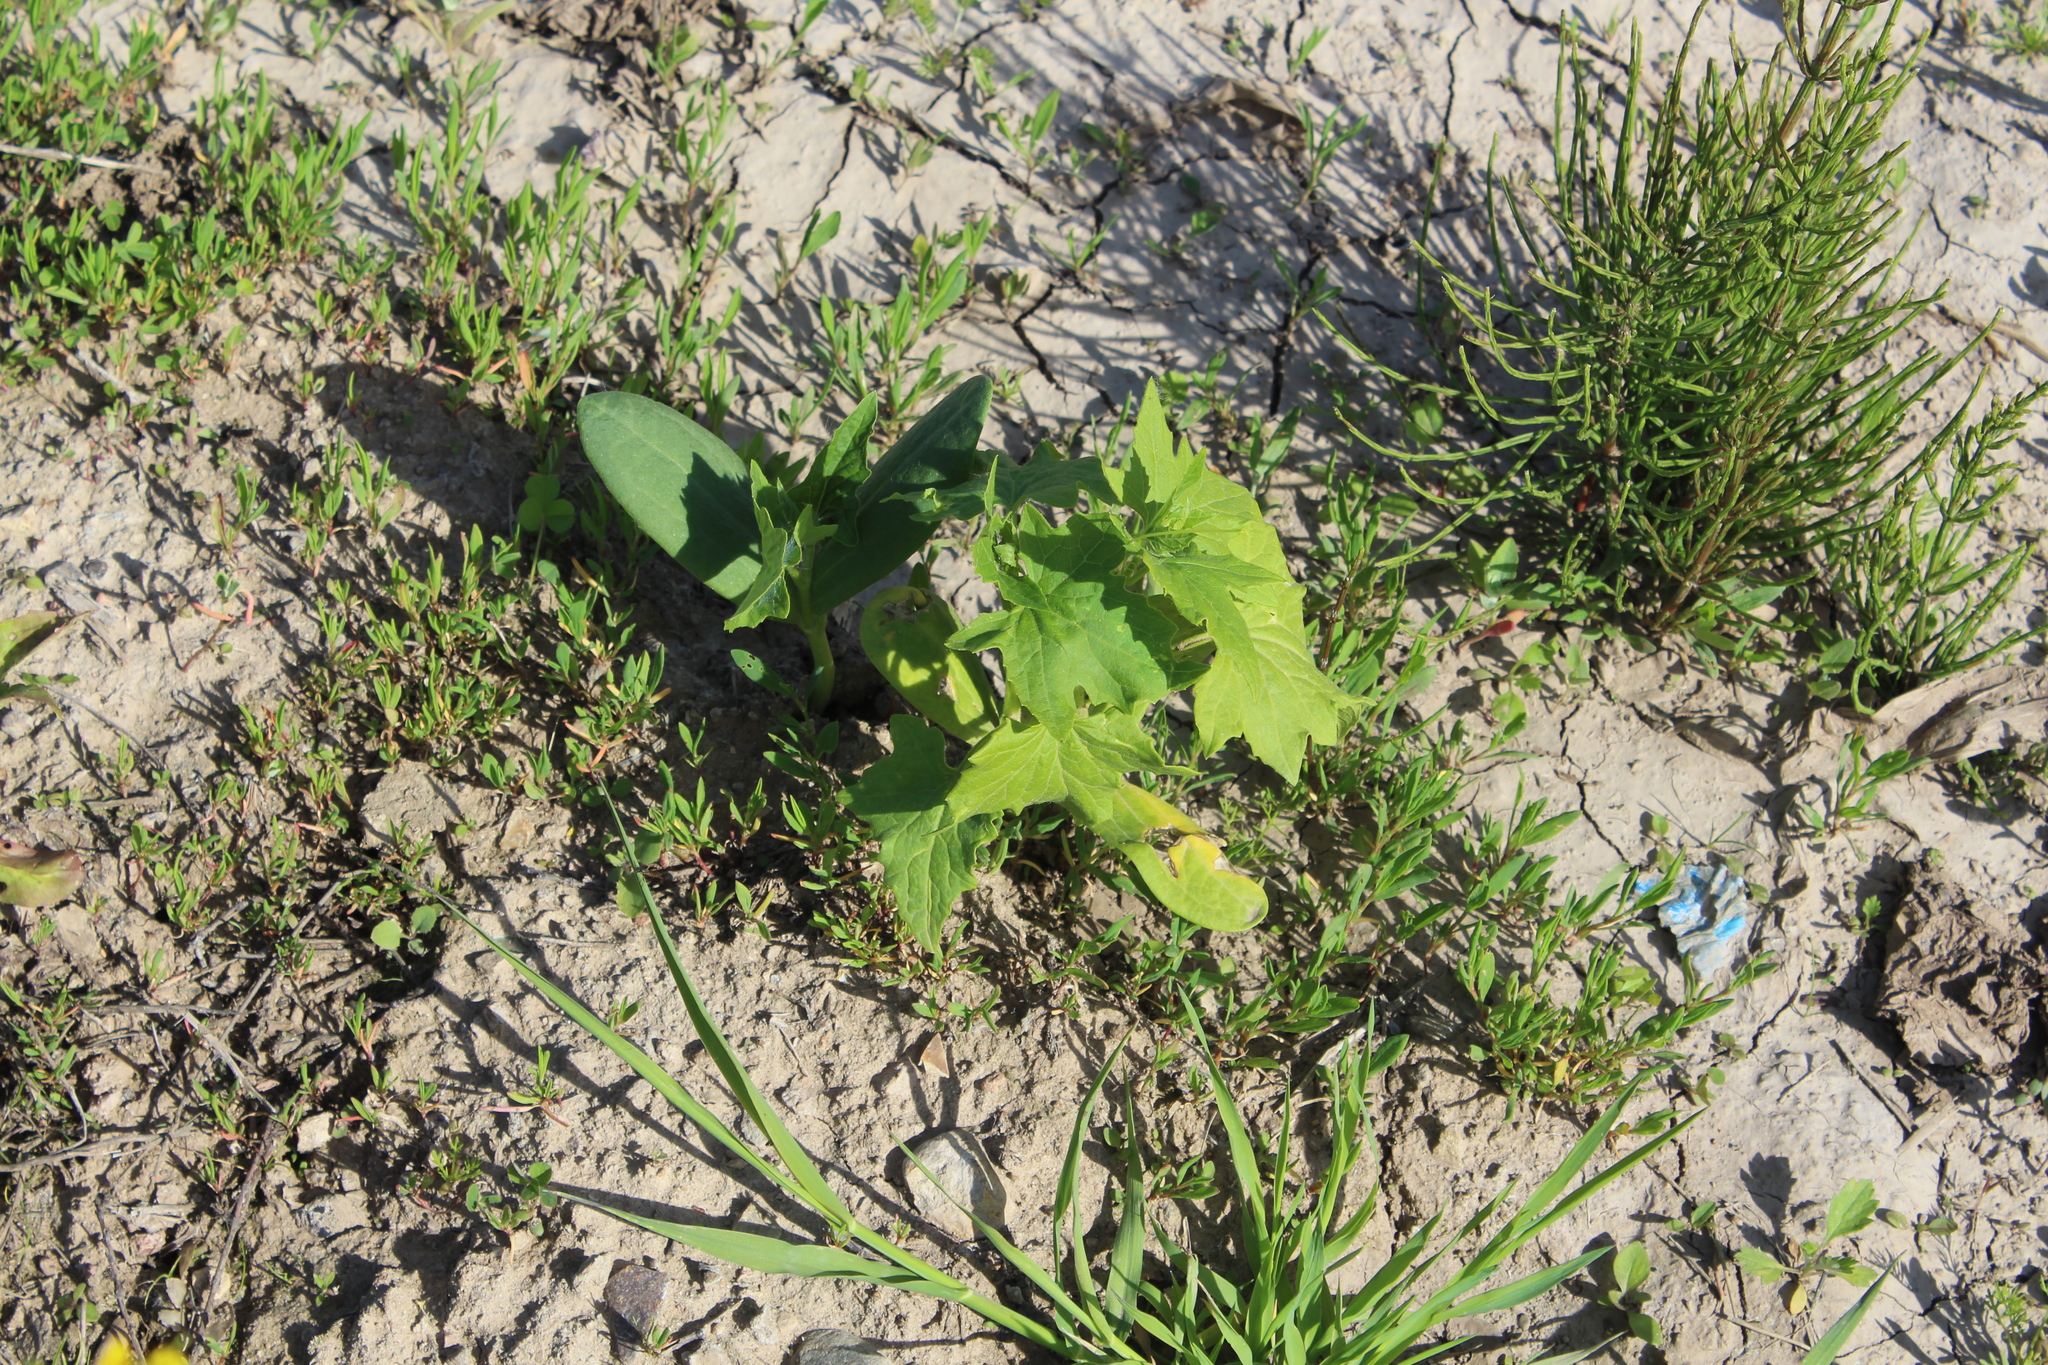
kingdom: Plantae
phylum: Tracheophyta
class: Magnoliopsida
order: Cucurbitales
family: Cucurbitaceae
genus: Echinocystis
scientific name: Echinocystis lobata
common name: Wild cucumber
